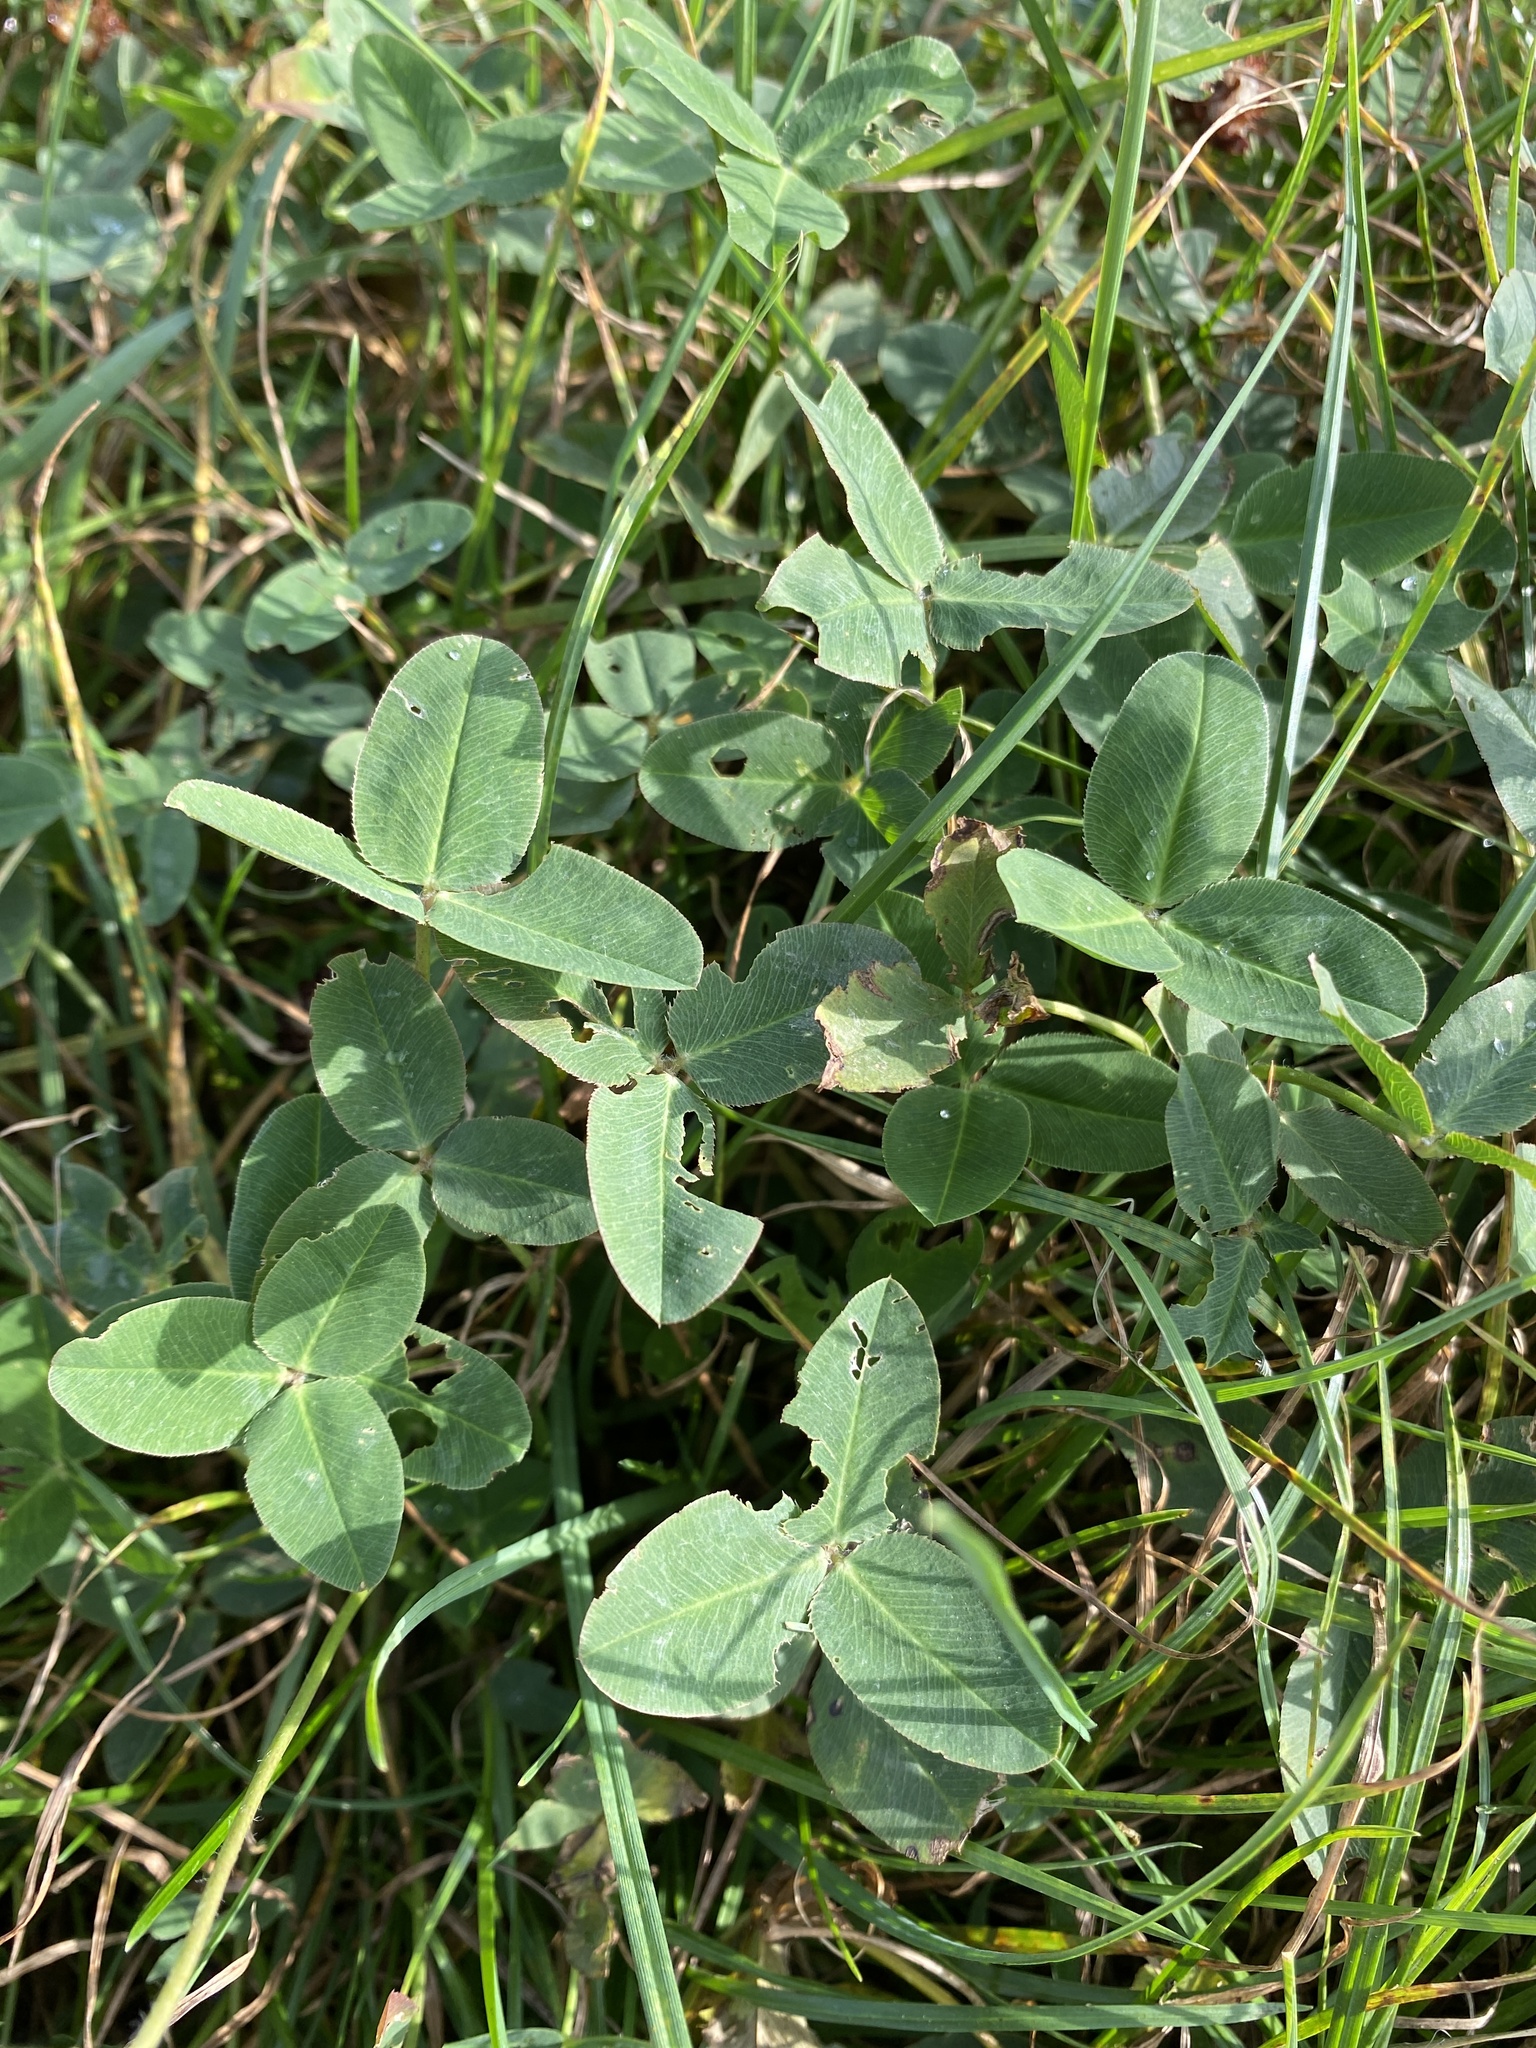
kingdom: Plantae
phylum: Tracheophyta
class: Magnoliopsida
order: Fabales
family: Fabaceae
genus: Trifolium
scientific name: Trifolium fragiferum
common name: Strawberry clover
